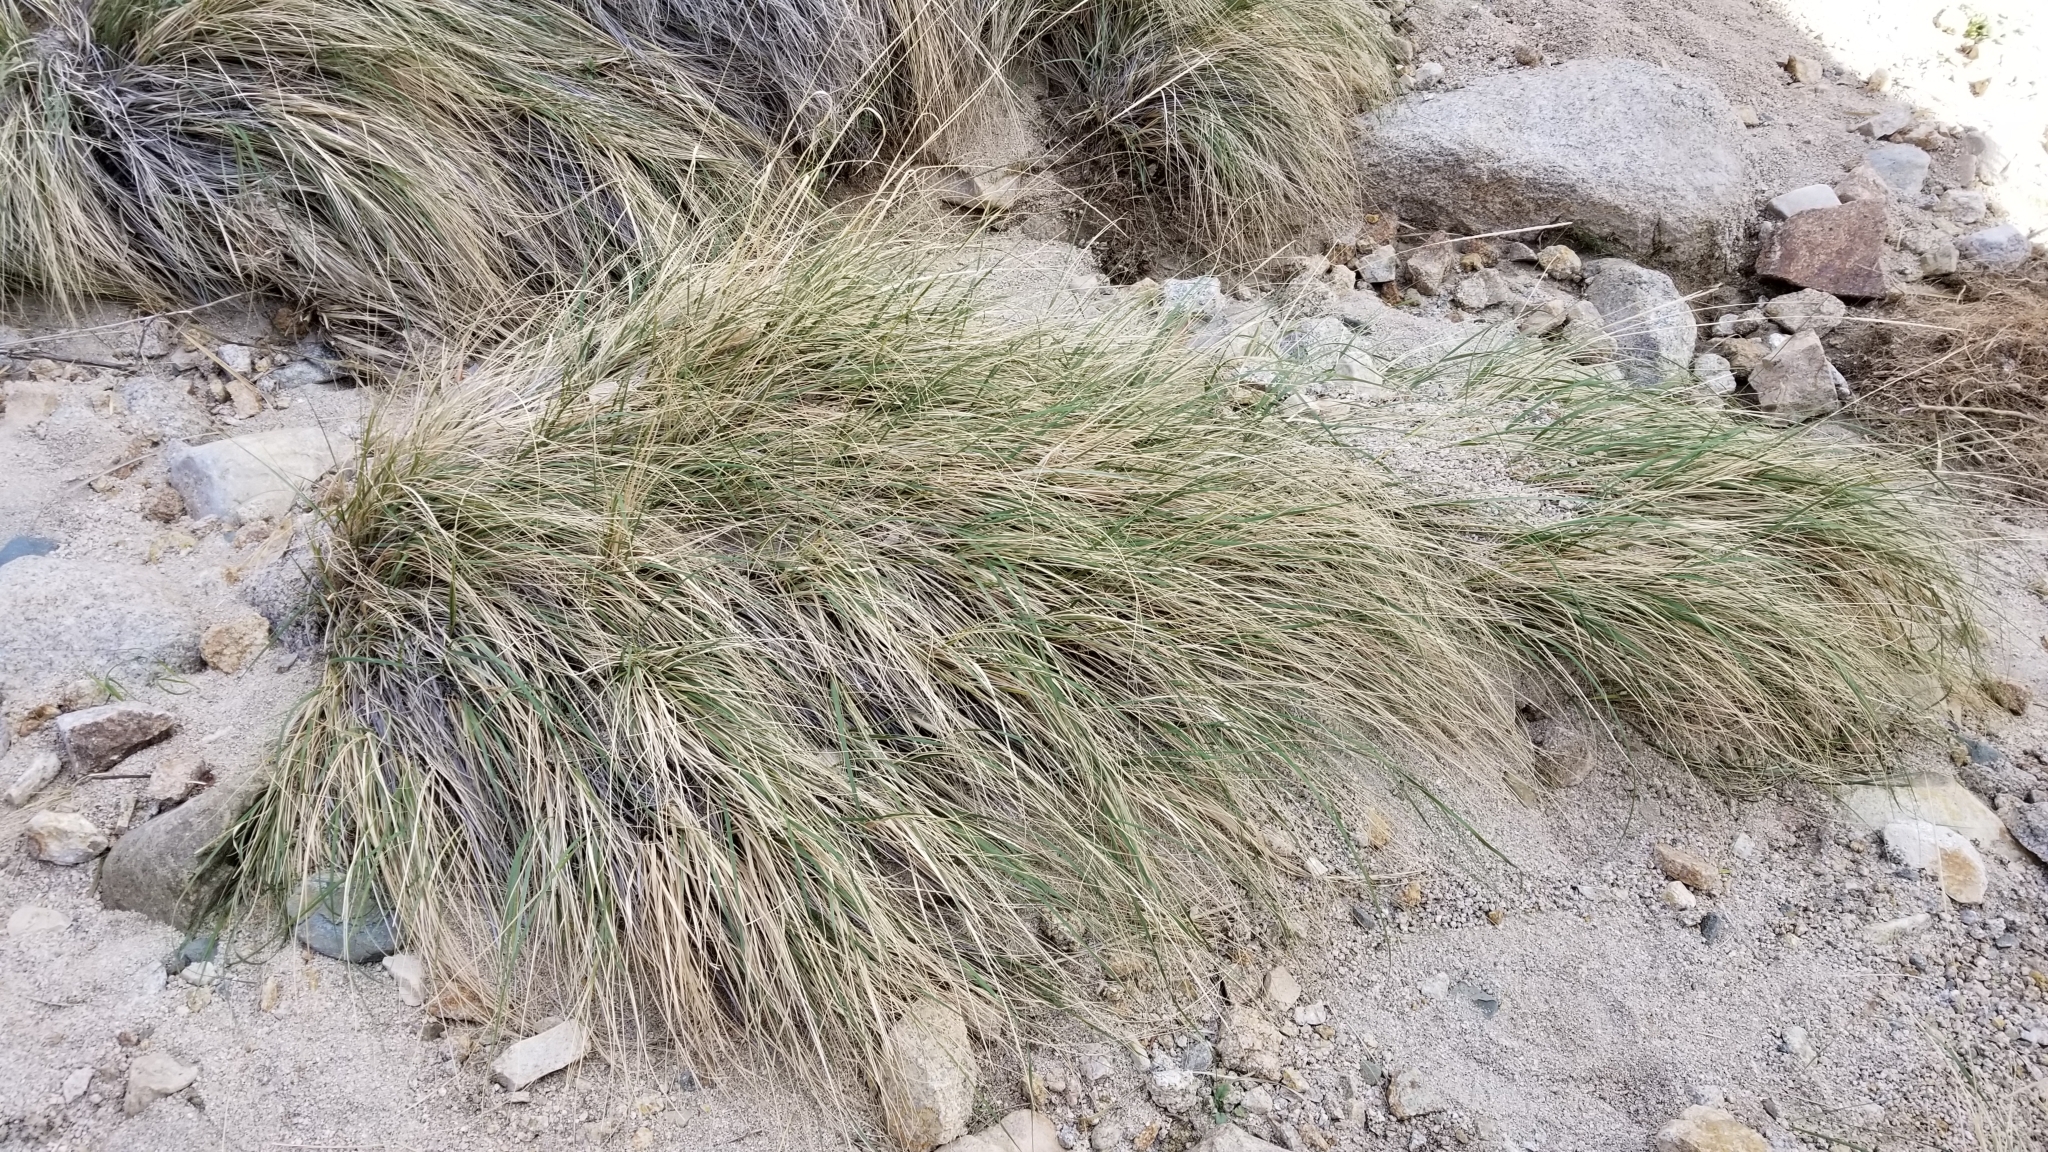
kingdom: Plantae
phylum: Tracheophyta
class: Liliopsida
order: Poales
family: Poaceae
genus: Muhlenbergia
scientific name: Muhlenbergia rigens
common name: Deer grass
